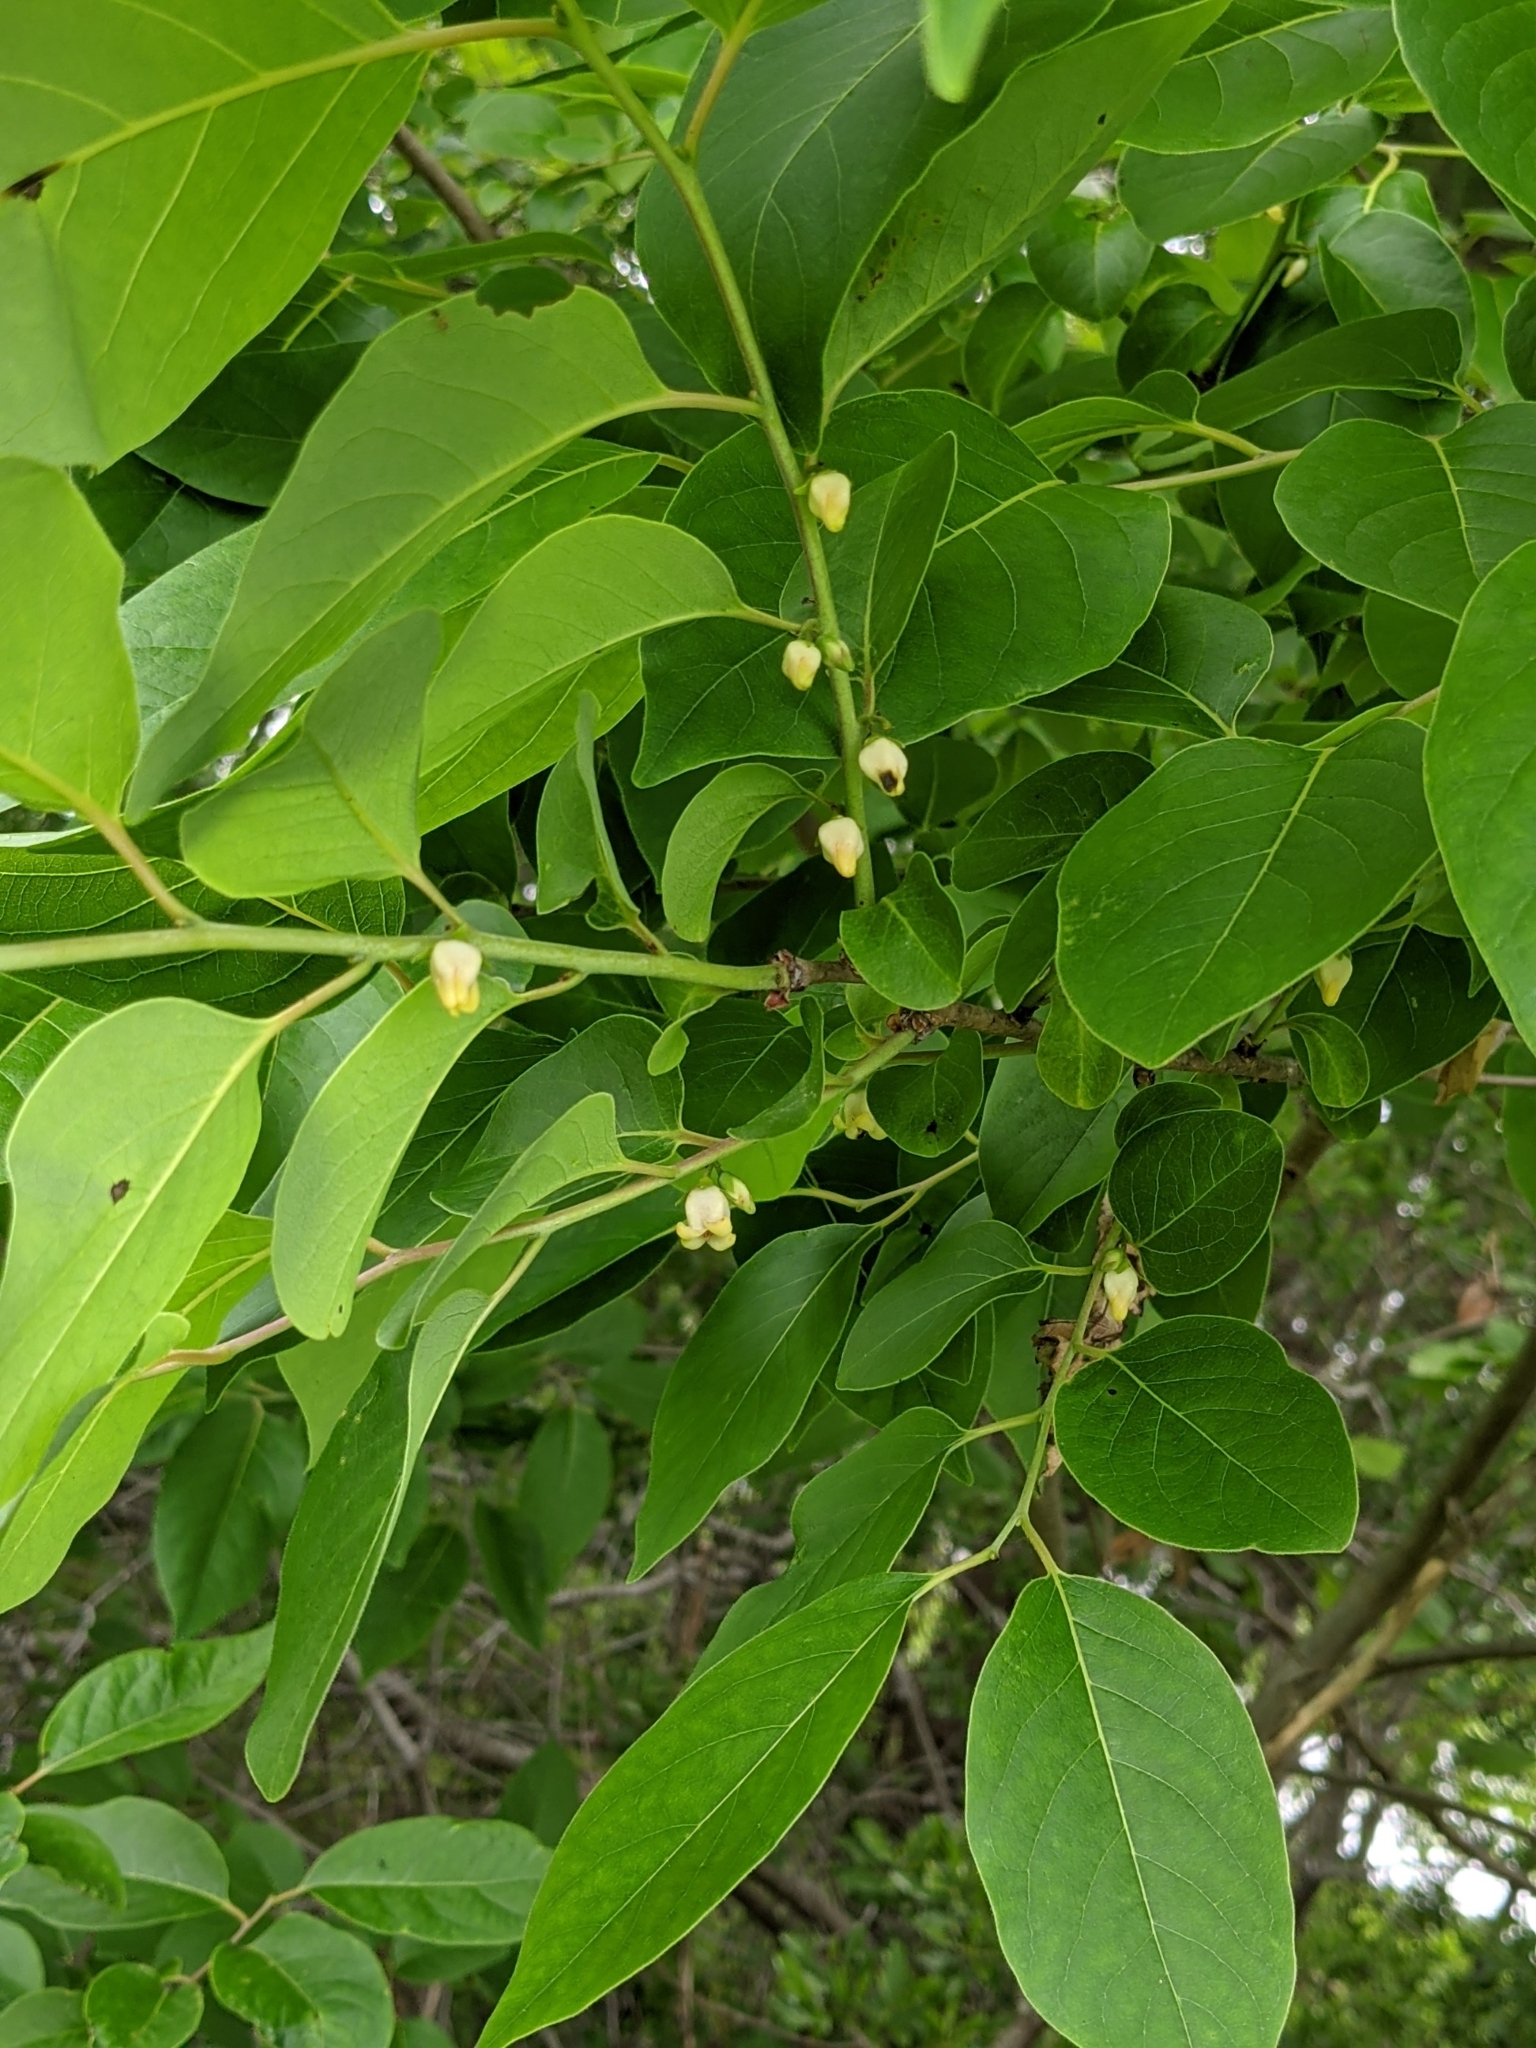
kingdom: Plantae
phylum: Tracheophyta
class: Magnoliopsida
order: Ericales
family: Ebenaceae
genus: Diospyros
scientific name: Diospyros virginiana
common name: Persimmon
